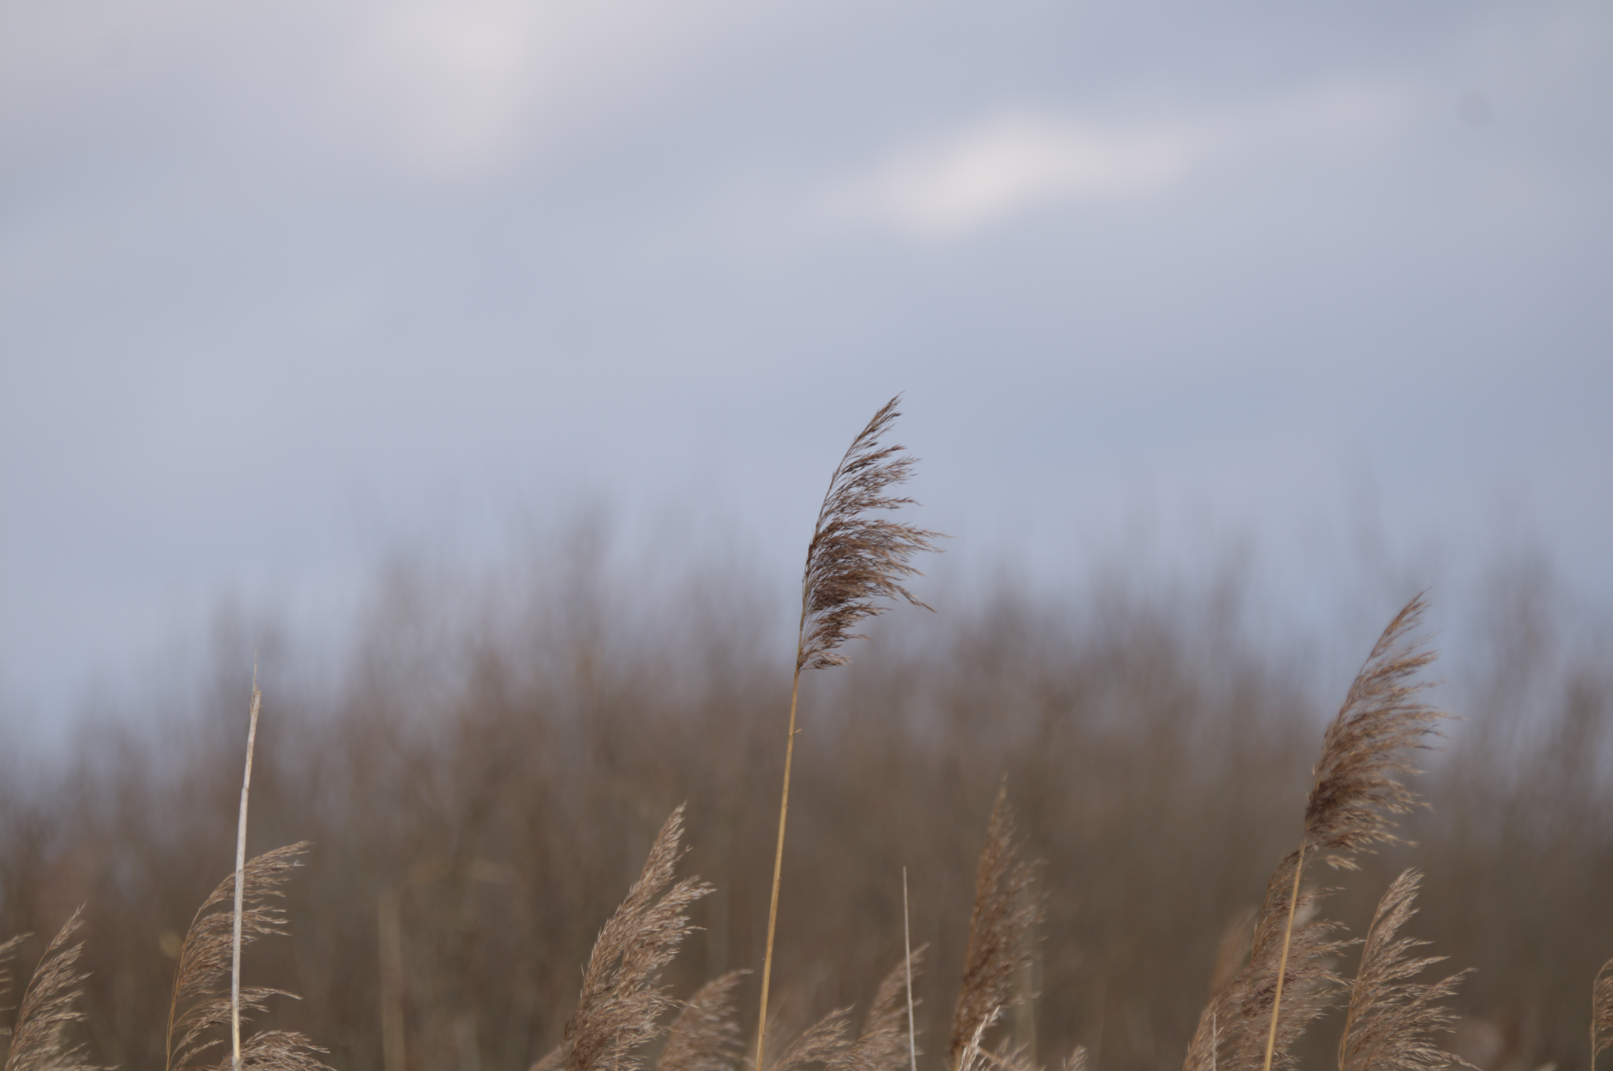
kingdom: Plantae
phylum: Tracheophyta
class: Liliopsida
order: Poales
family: Poaceae
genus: Phragmites
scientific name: Phragmites australis
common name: Common reed
